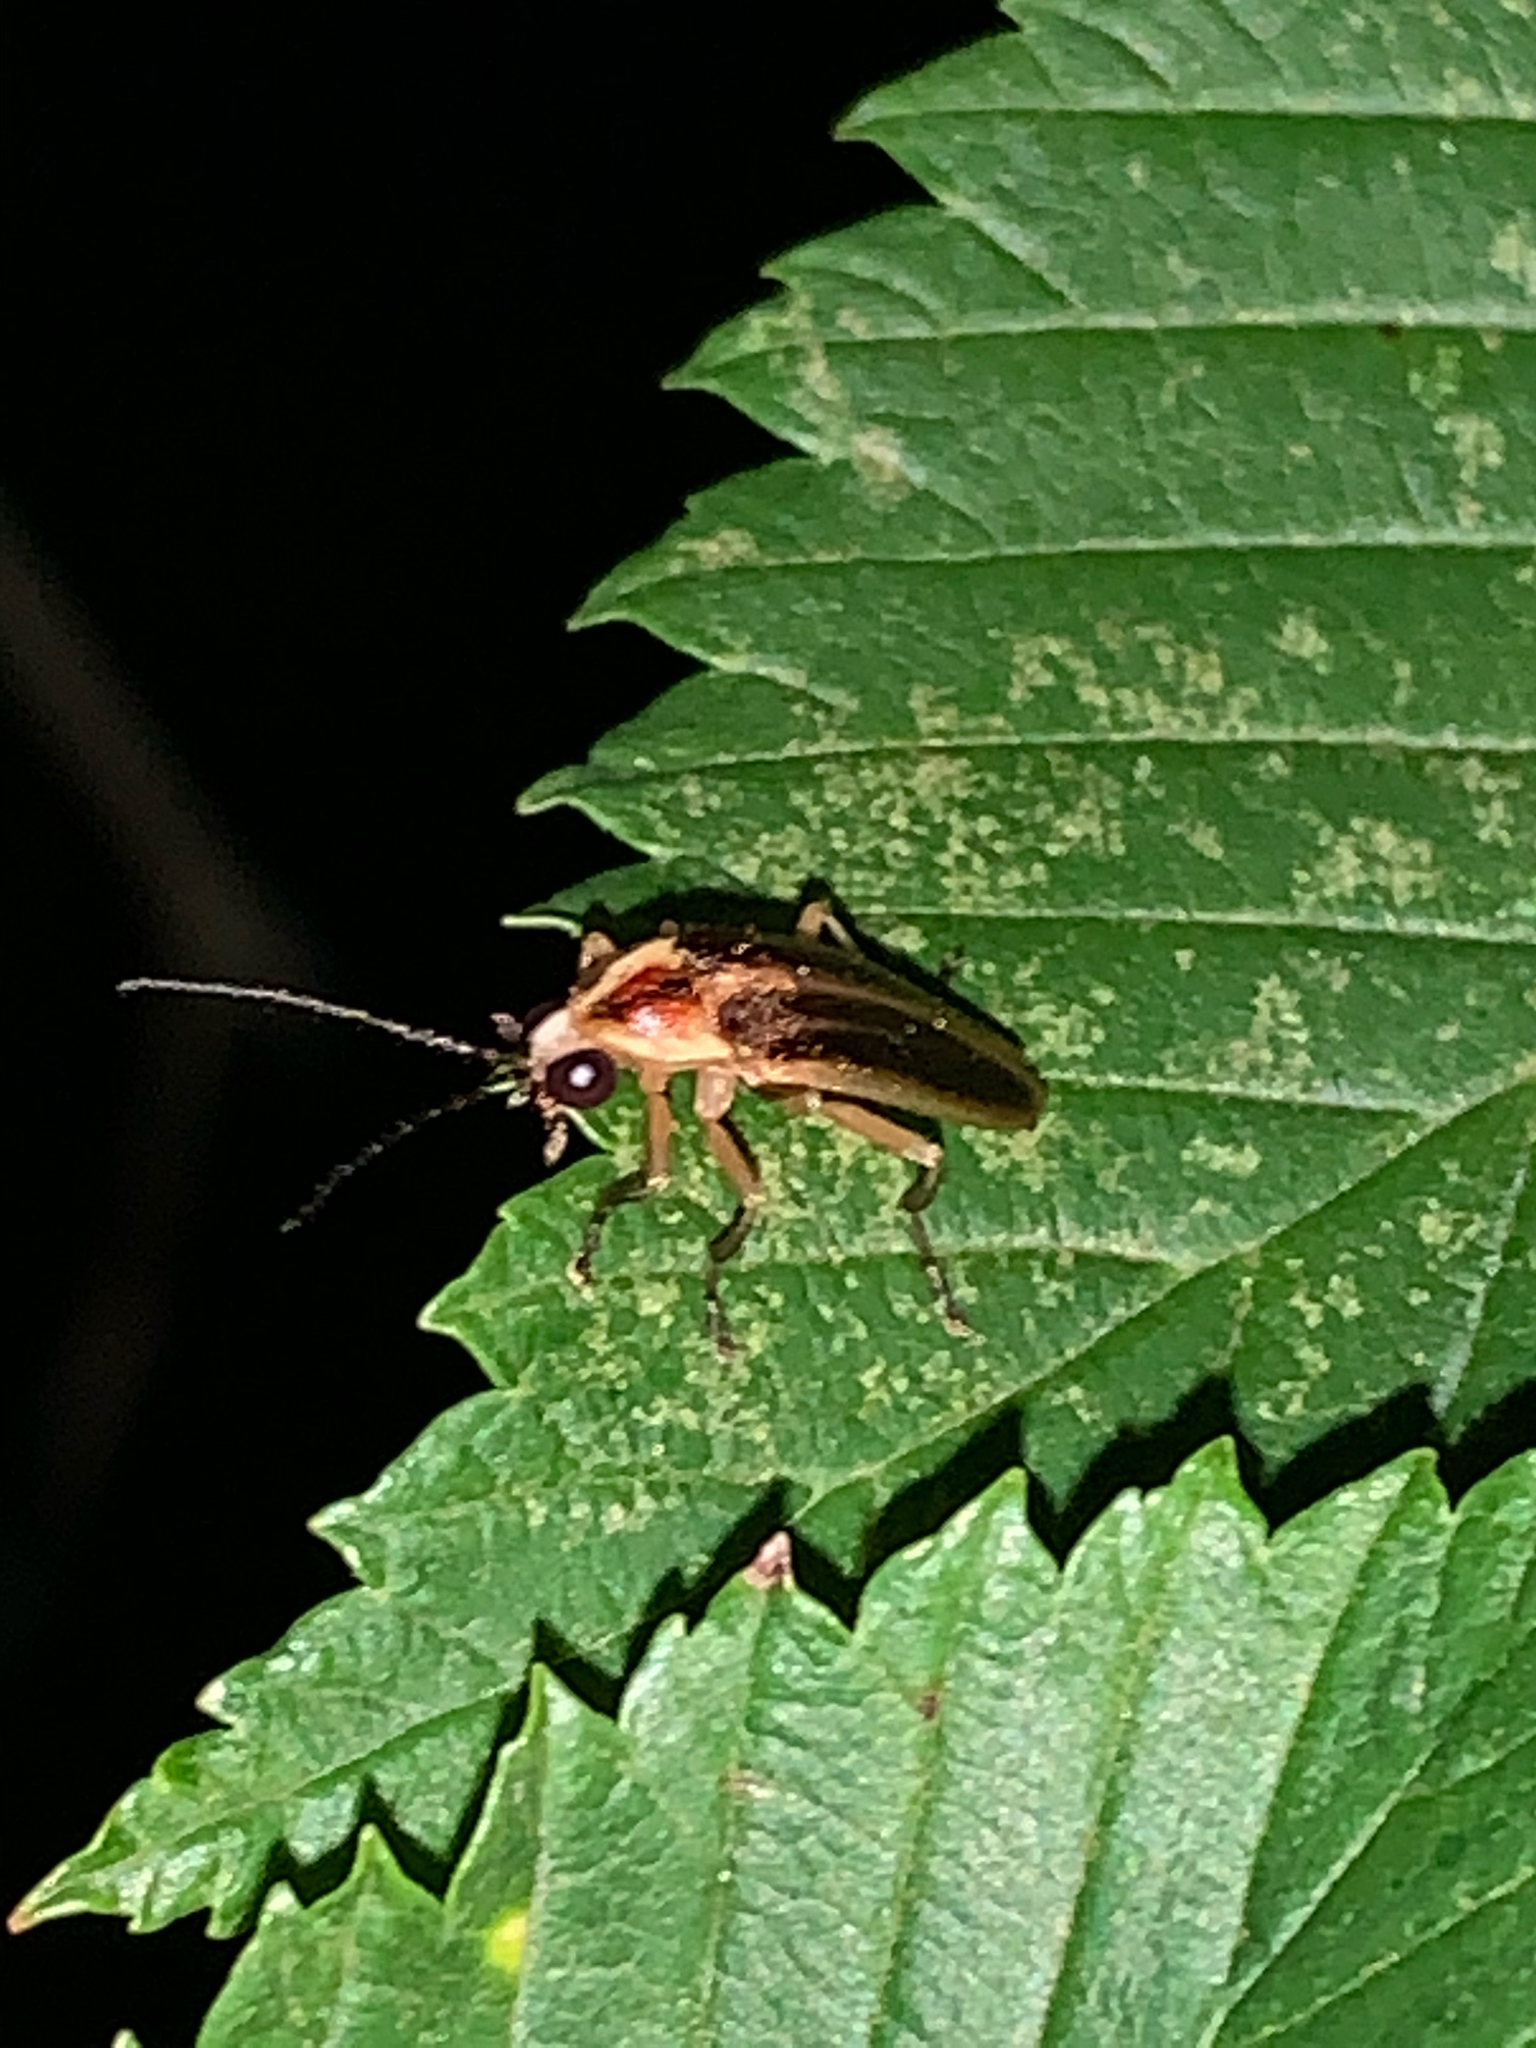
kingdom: Animalia
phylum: Arthropoda
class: Insecta
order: Coleoptera
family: Lampyridae
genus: Photuris
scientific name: Photuris
